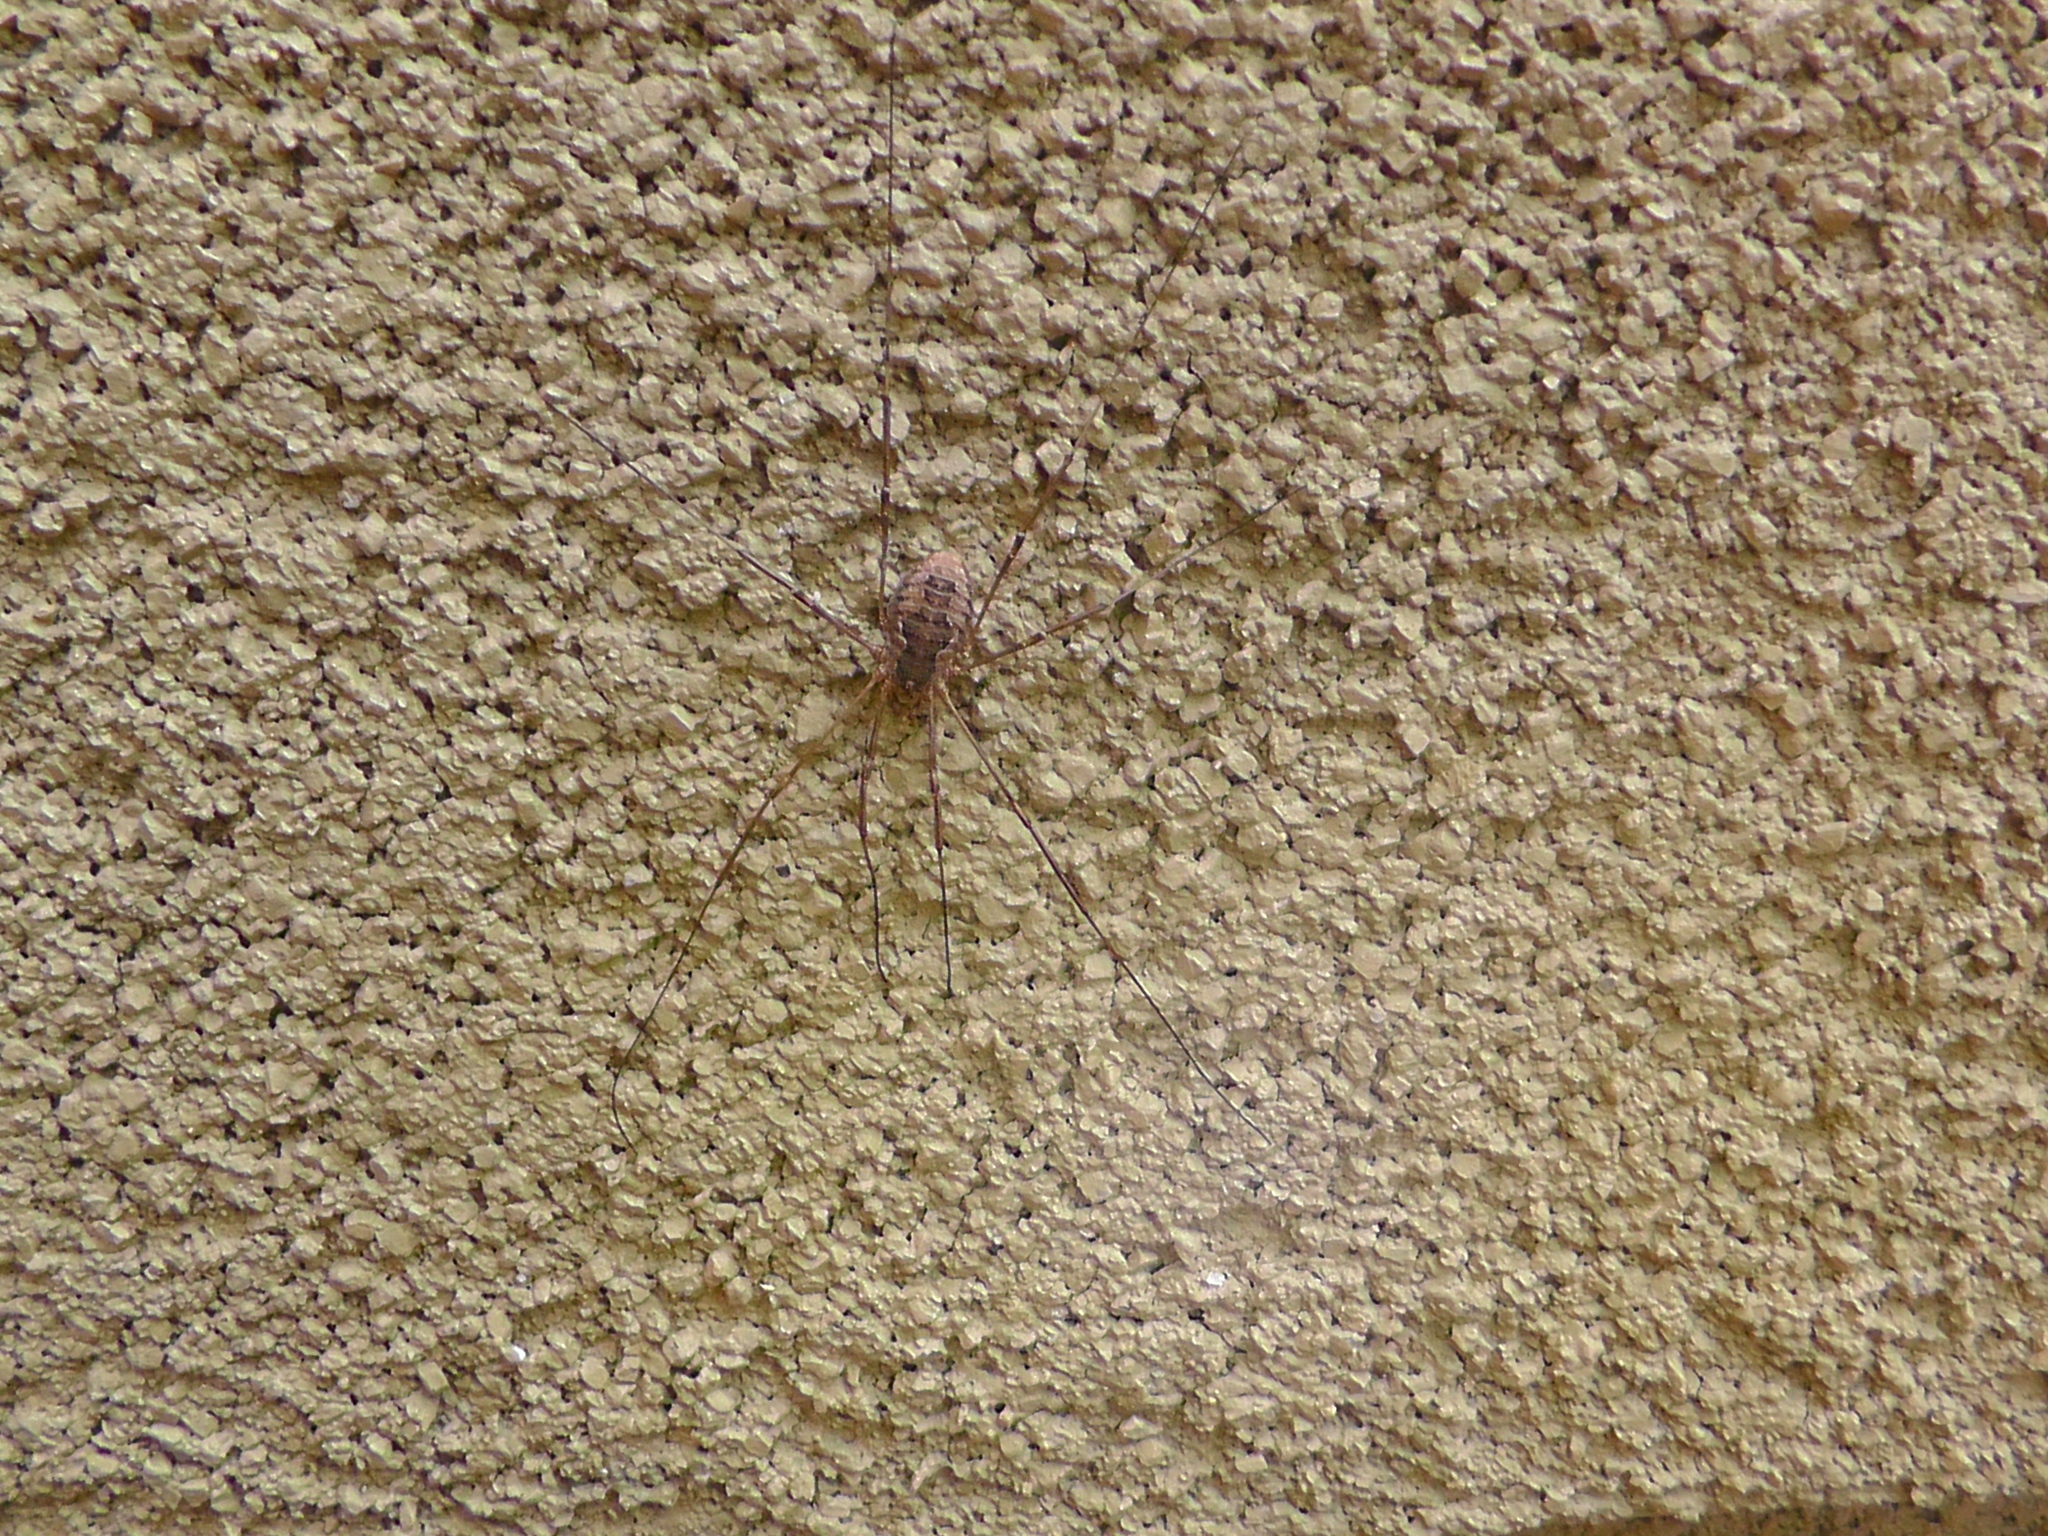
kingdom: Animalia
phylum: Arthropoda
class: Arachnida
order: Opiliones
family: Phalangiidae
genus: Phalangium
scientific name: Phalangium opilio
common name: Daddy longleg
